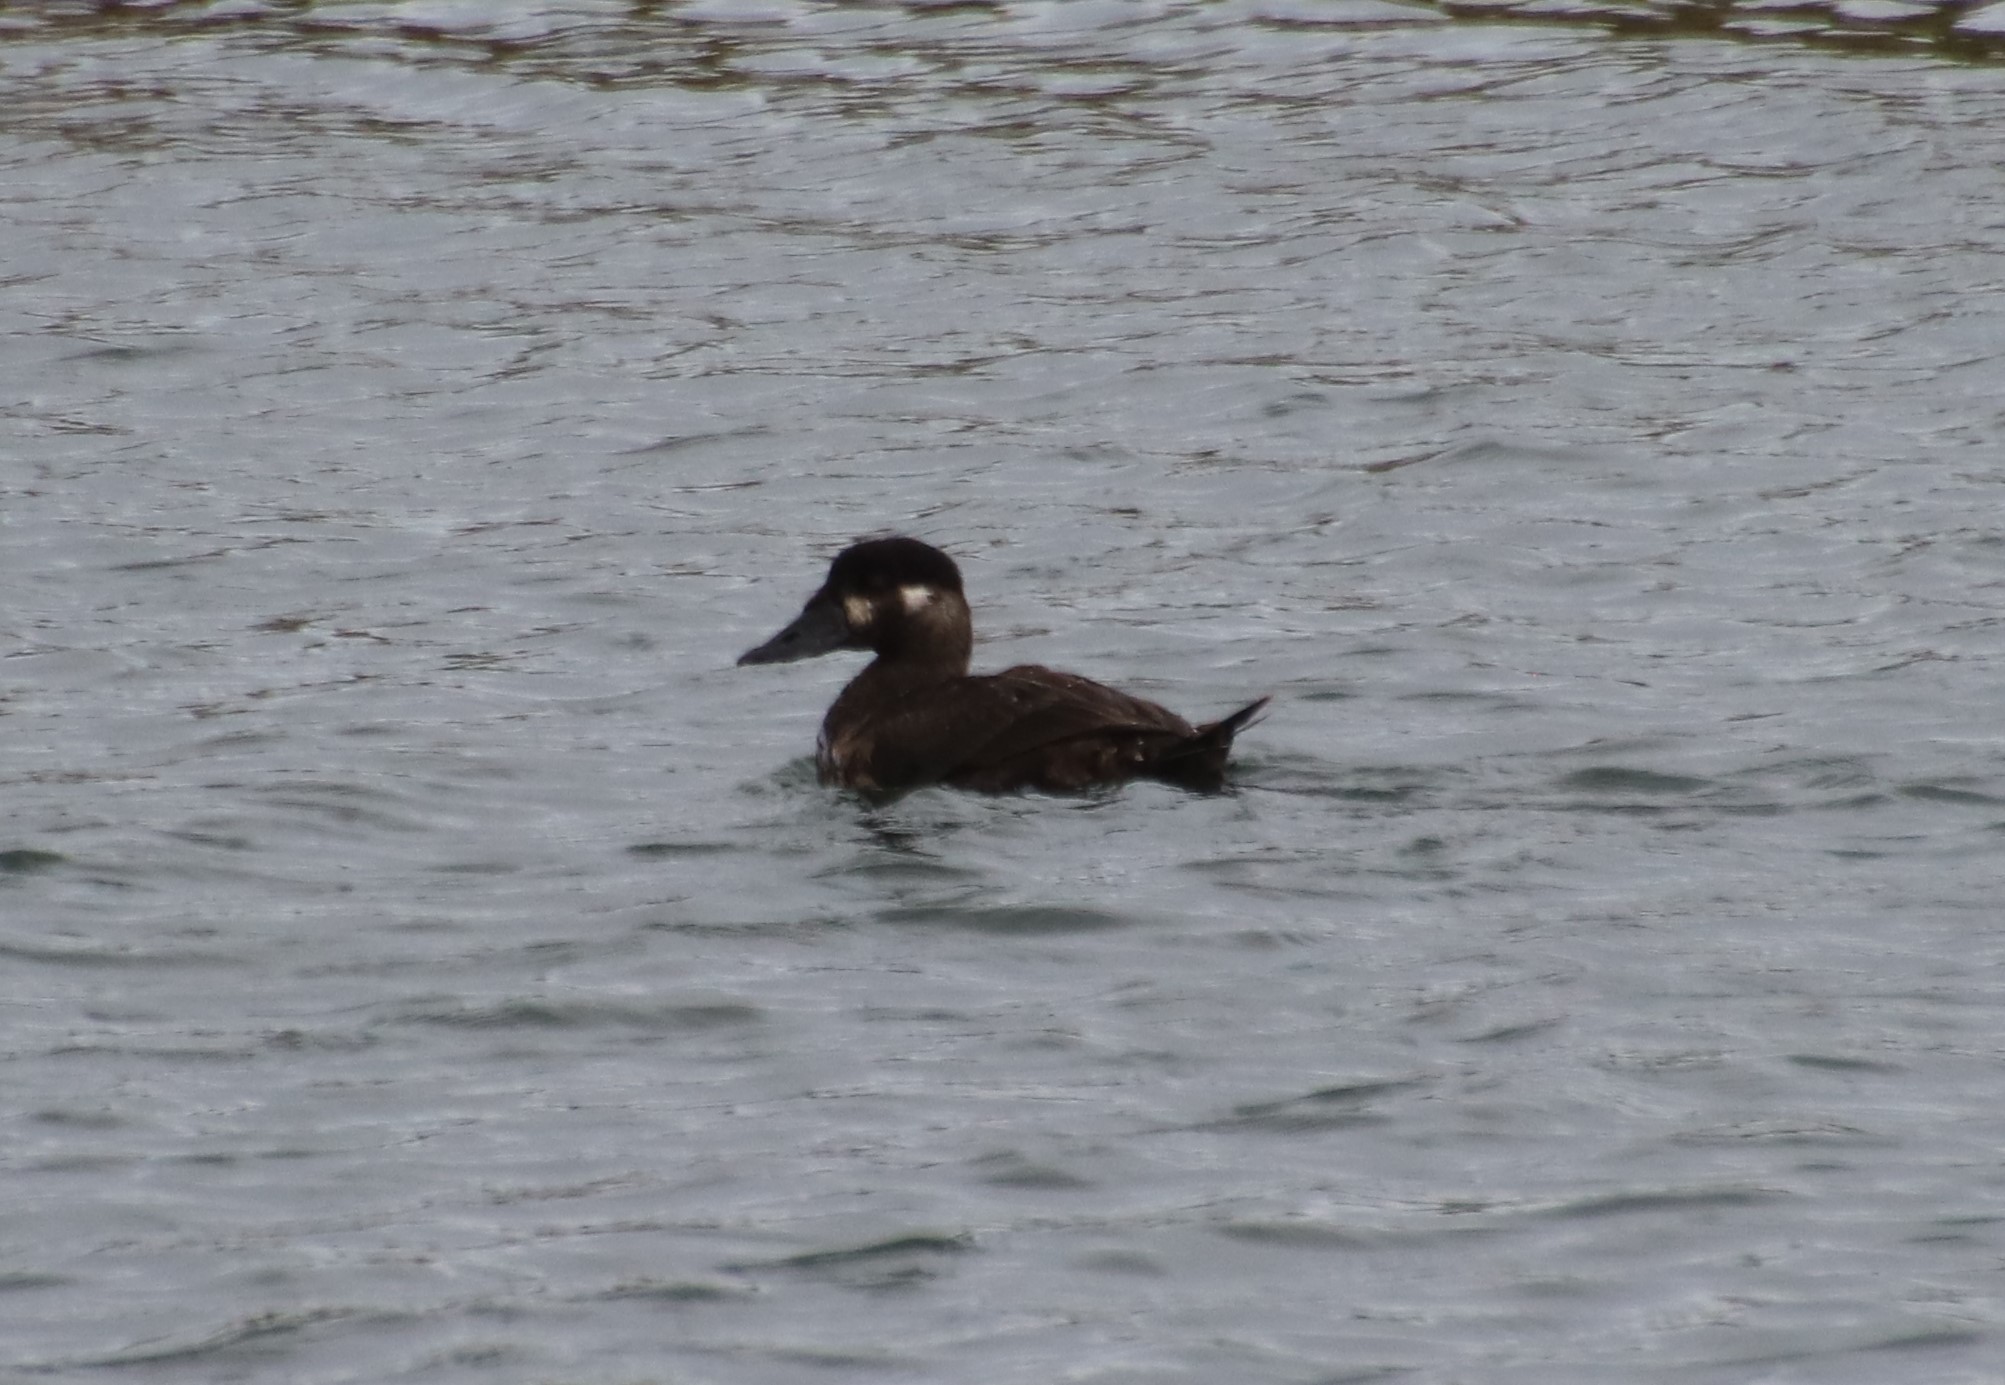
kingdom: Animalia
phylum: Chordata
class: Aves
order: Anseriformes
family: Anatidae
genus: Melanitta
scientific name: Melanitta perspicillata
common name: Surf scoter
